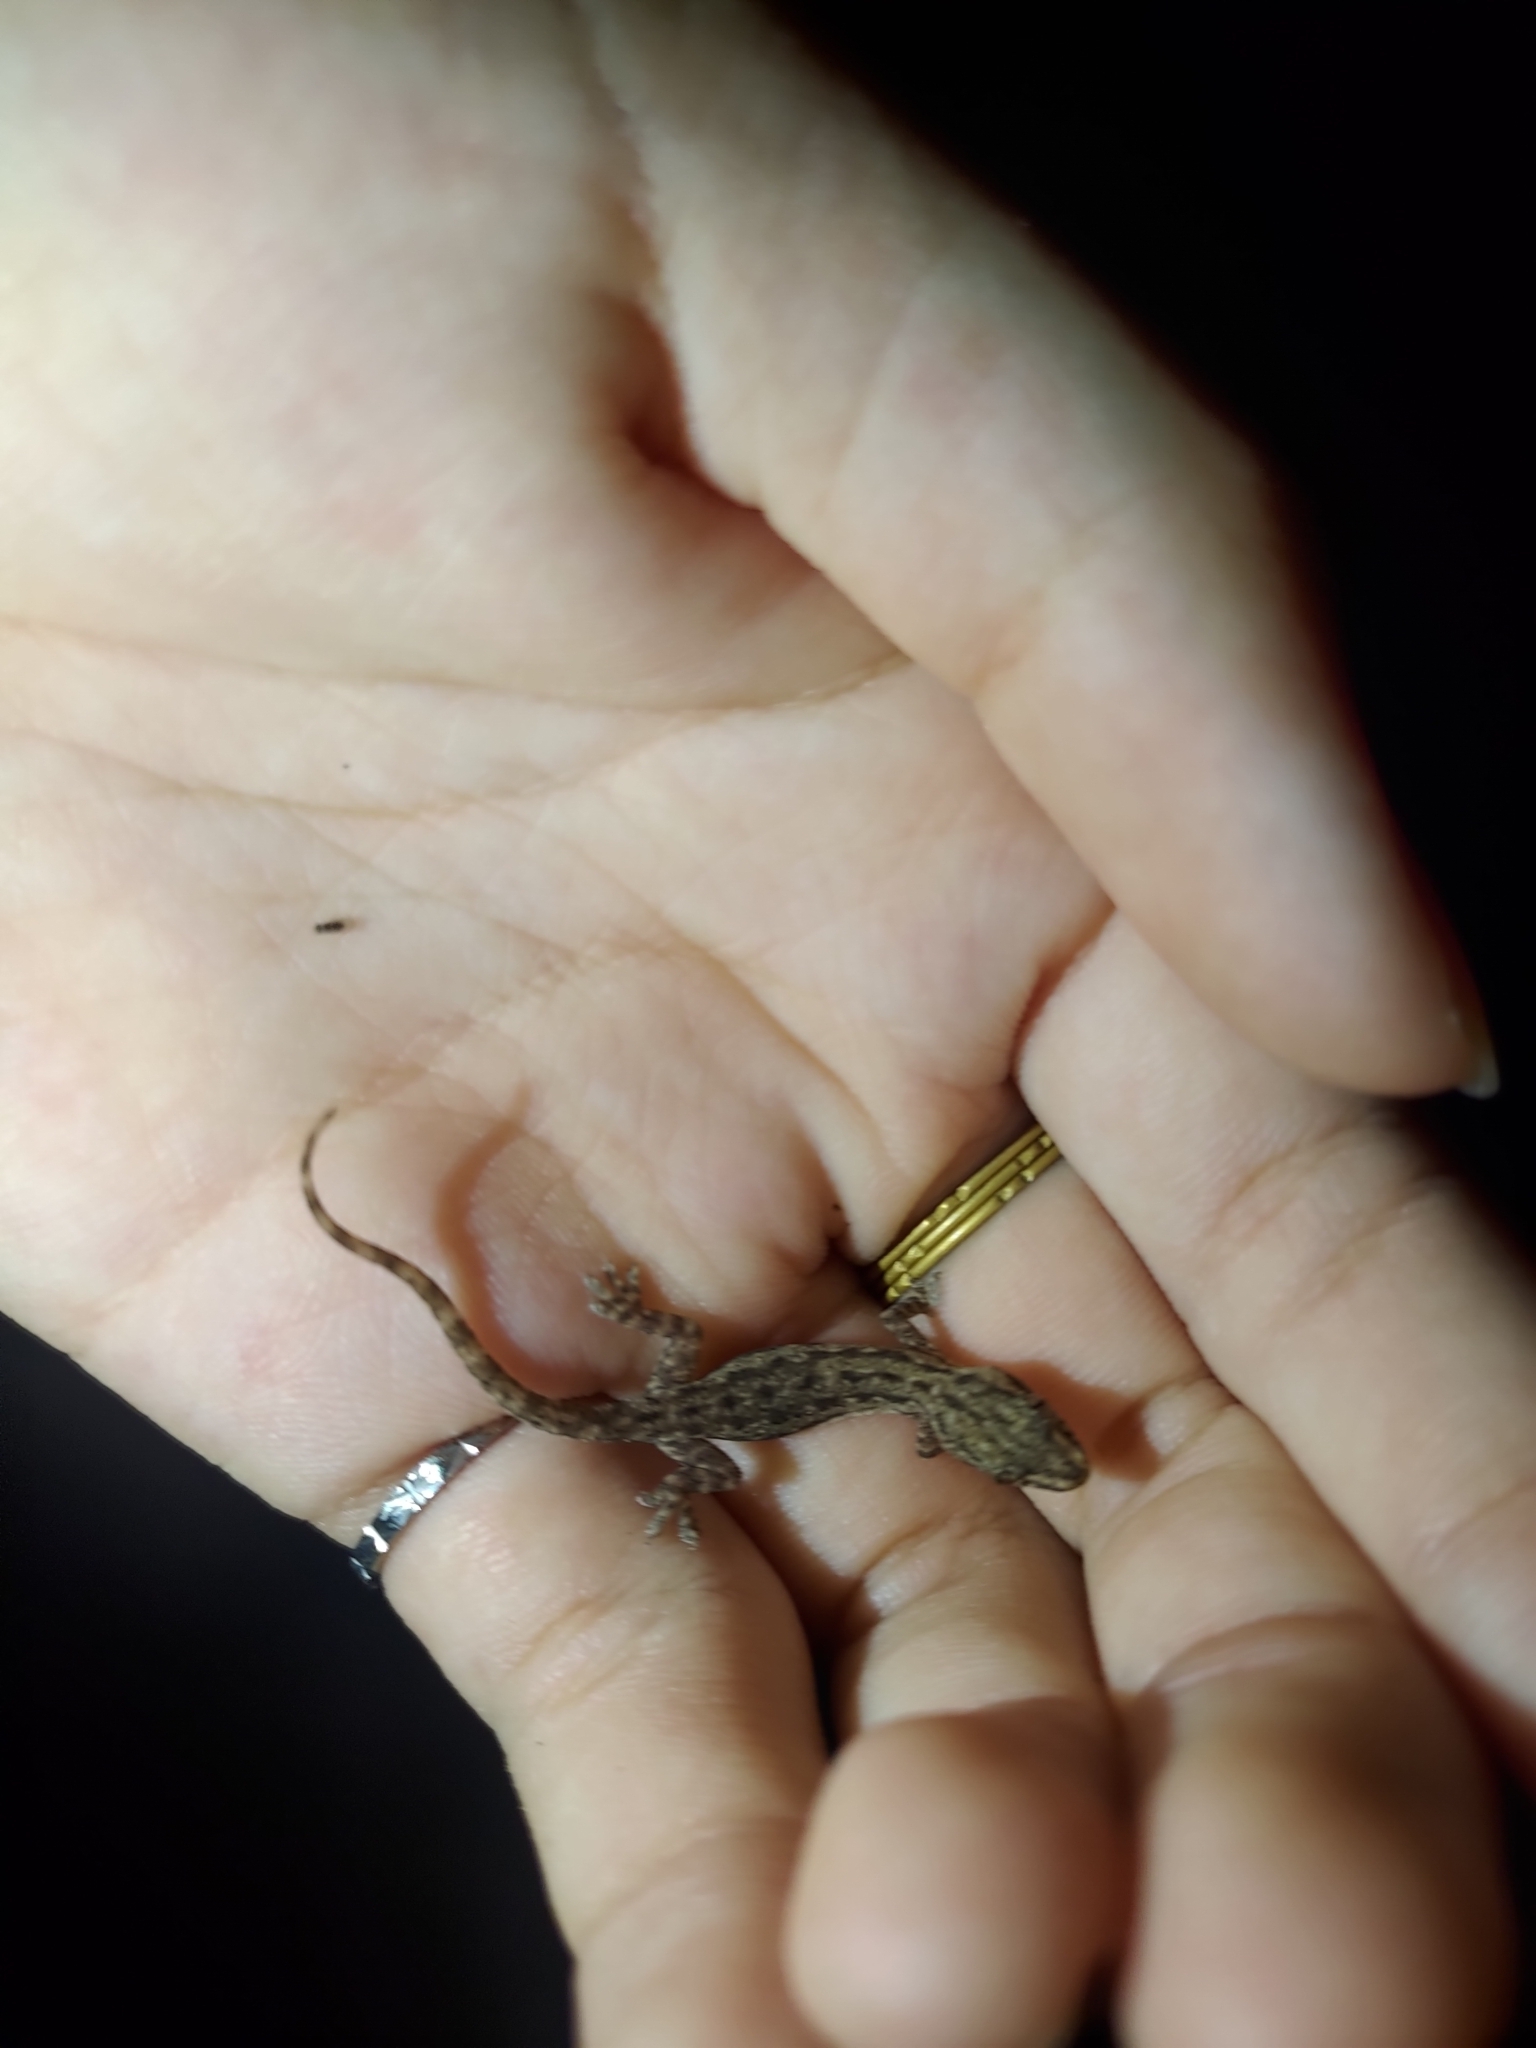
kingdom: Animalia
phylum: Chordata
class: Squamata
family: Gekkonidae
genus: Hemidactylus
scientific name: Hemidactylus frenatus
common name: Common house gecko
